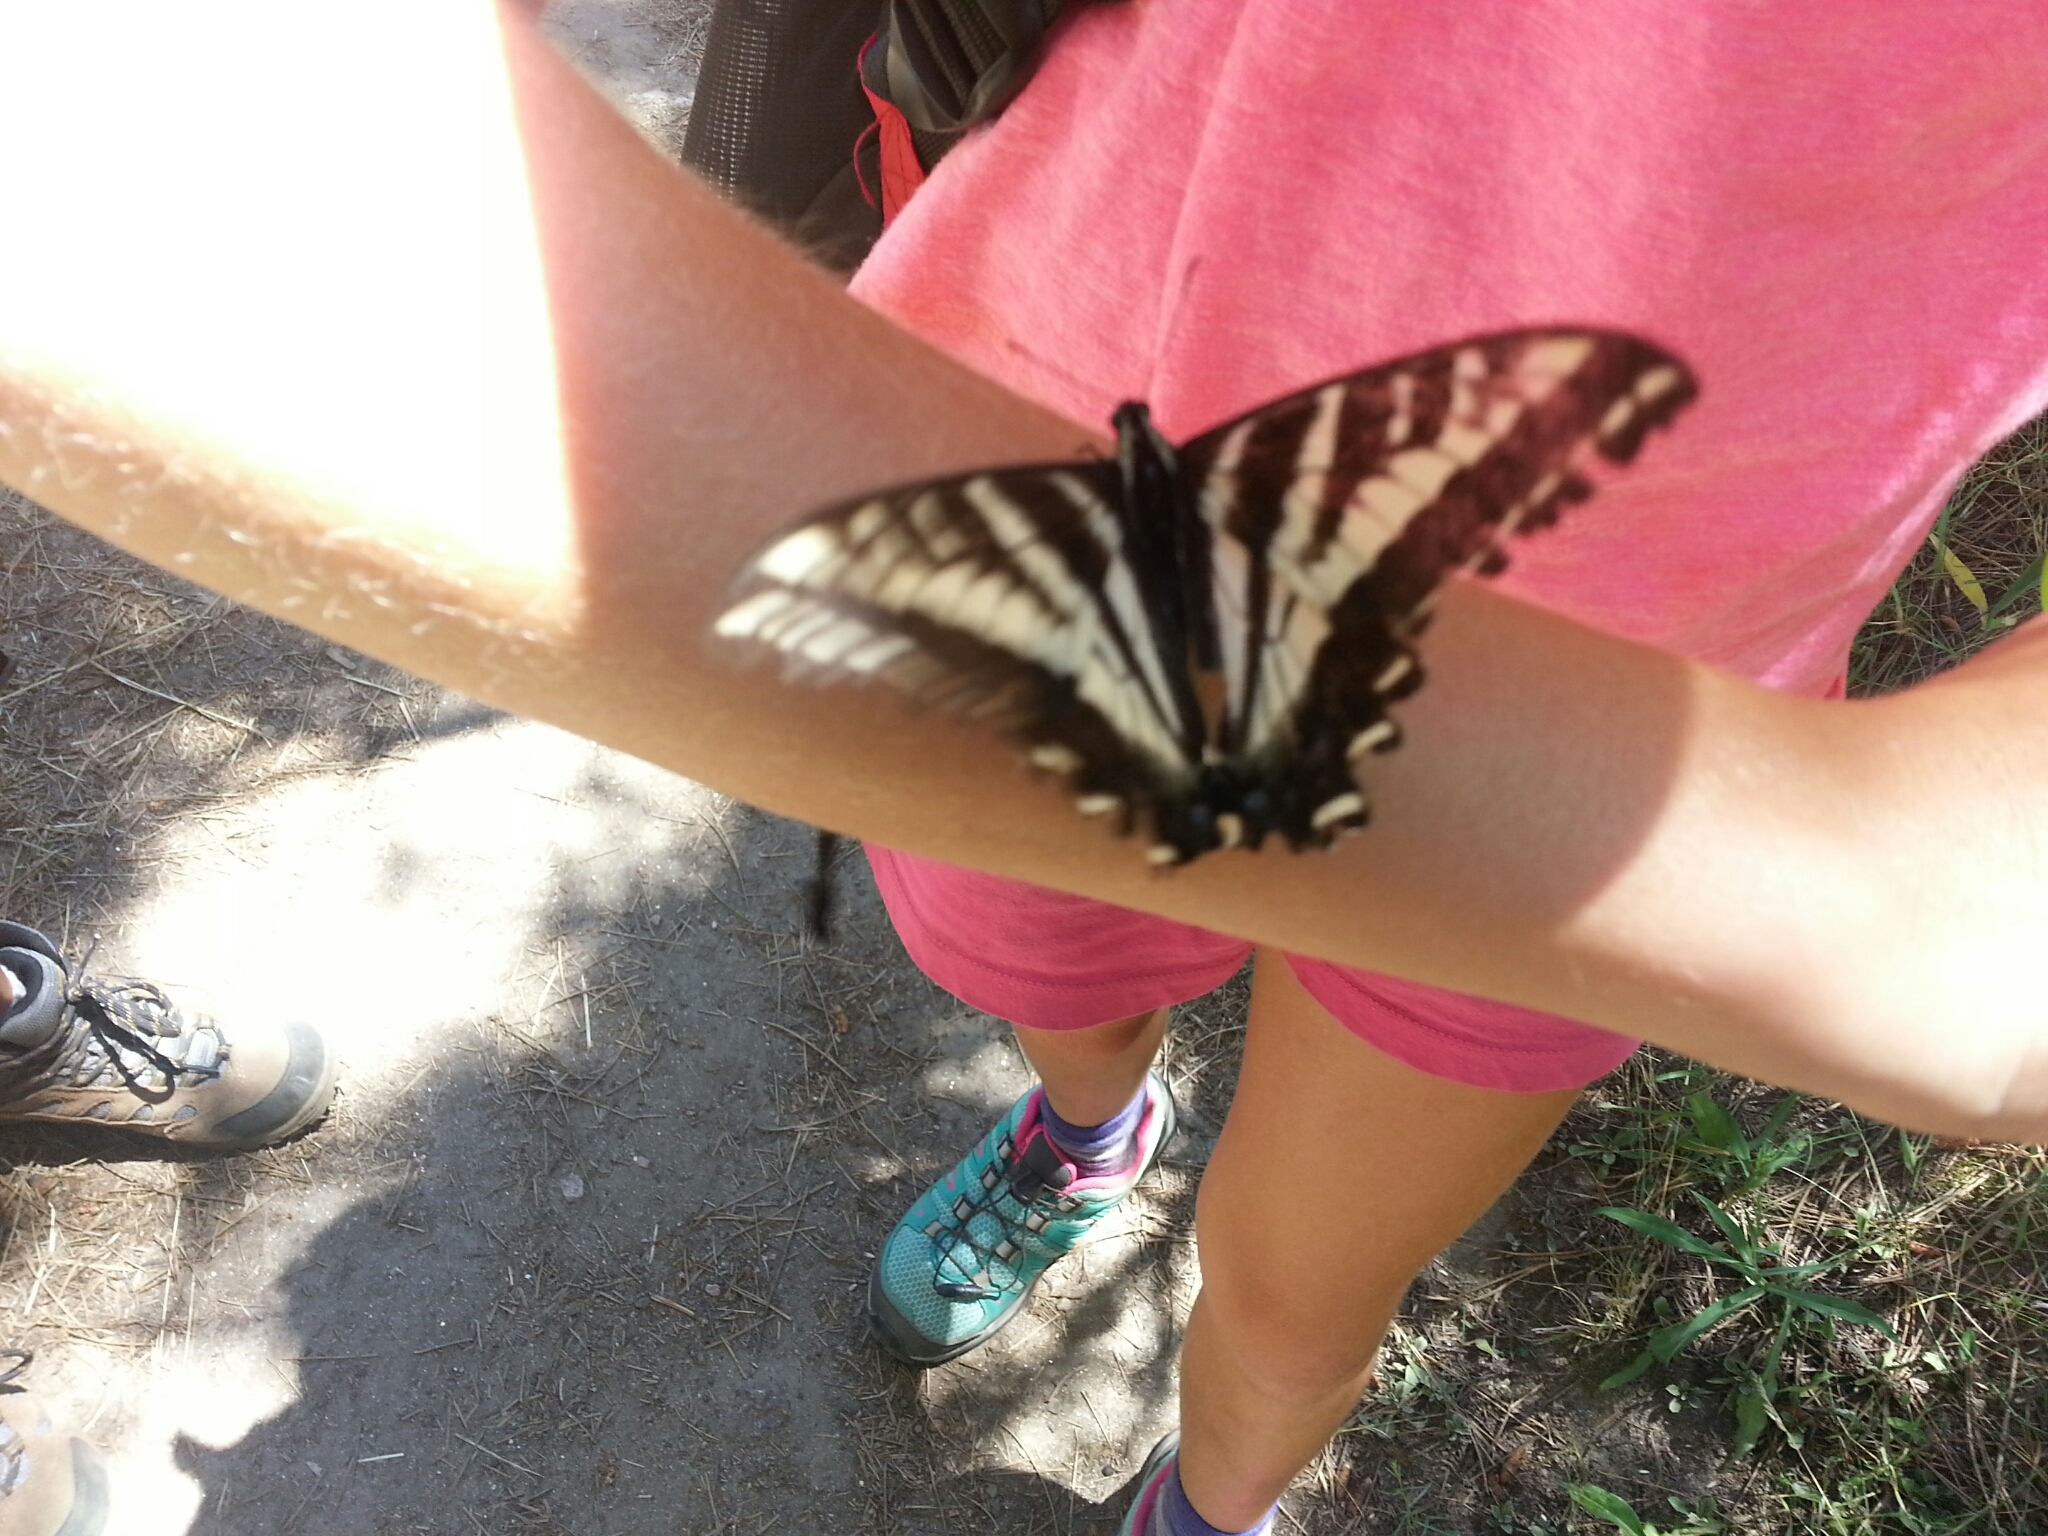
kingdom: Animalia
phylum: Arthropoda
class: Insecta
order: Lepidoptera
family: Papilionidae
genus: Papilio
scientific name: Papilio eurymedon
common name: Pale tiger swallowtail
